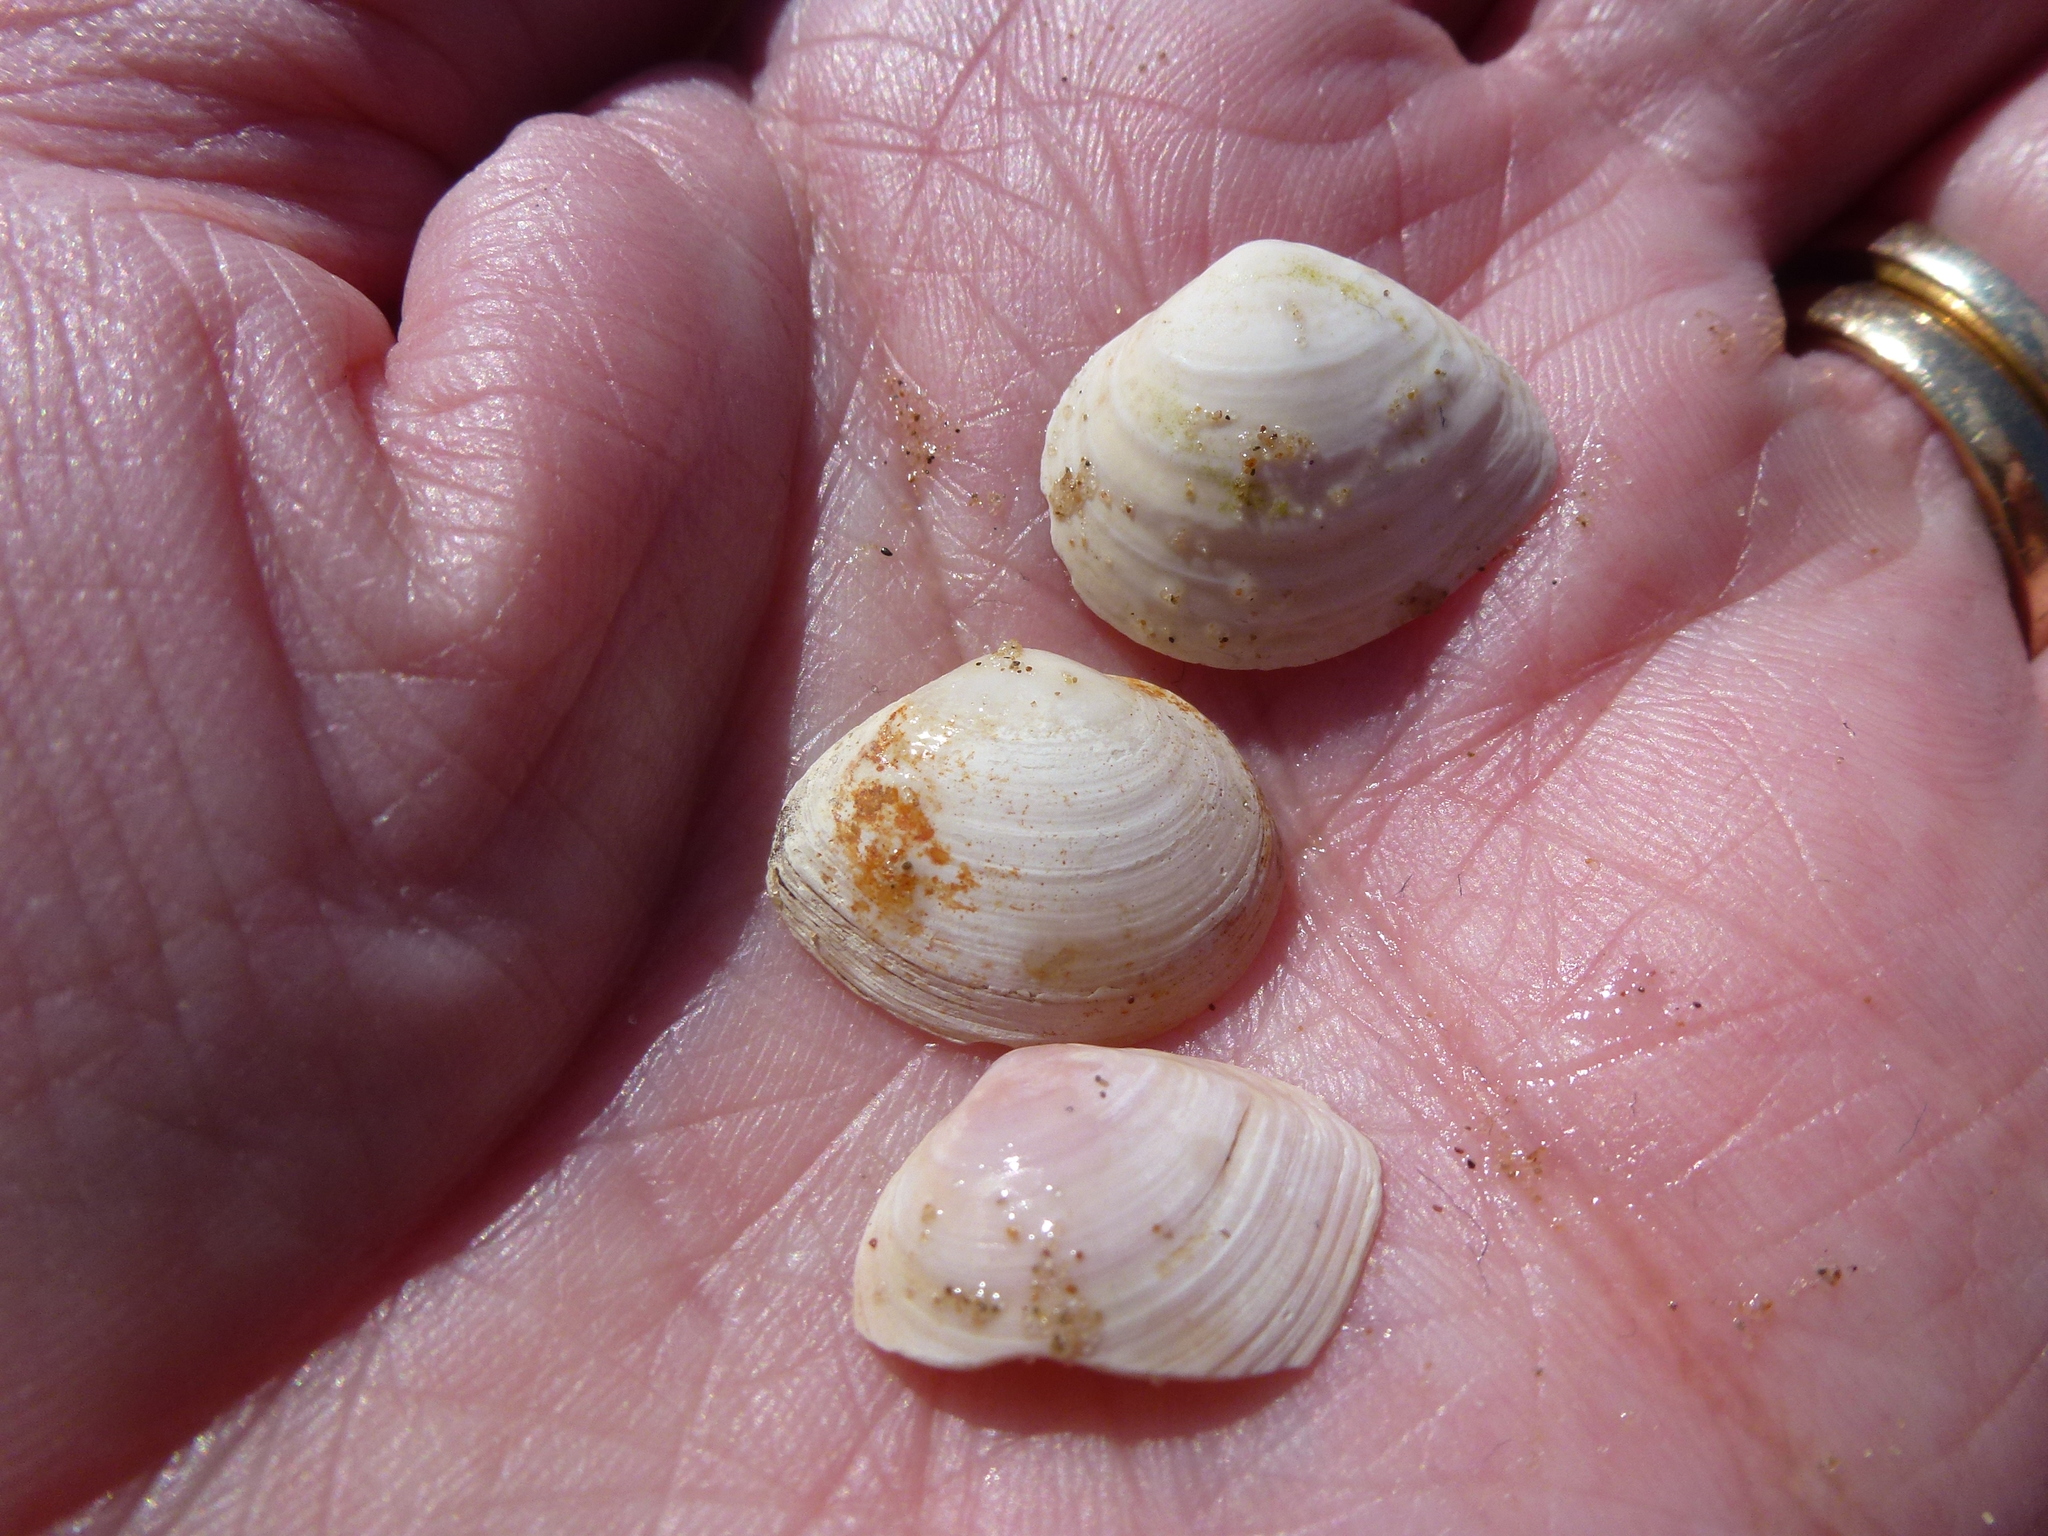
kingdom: Animalia
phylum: Mollusca
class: Bivalvia
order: Cardiida
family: Tellinidae
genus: Macoma
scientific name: Macoma balthica
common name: Baltic tellin
